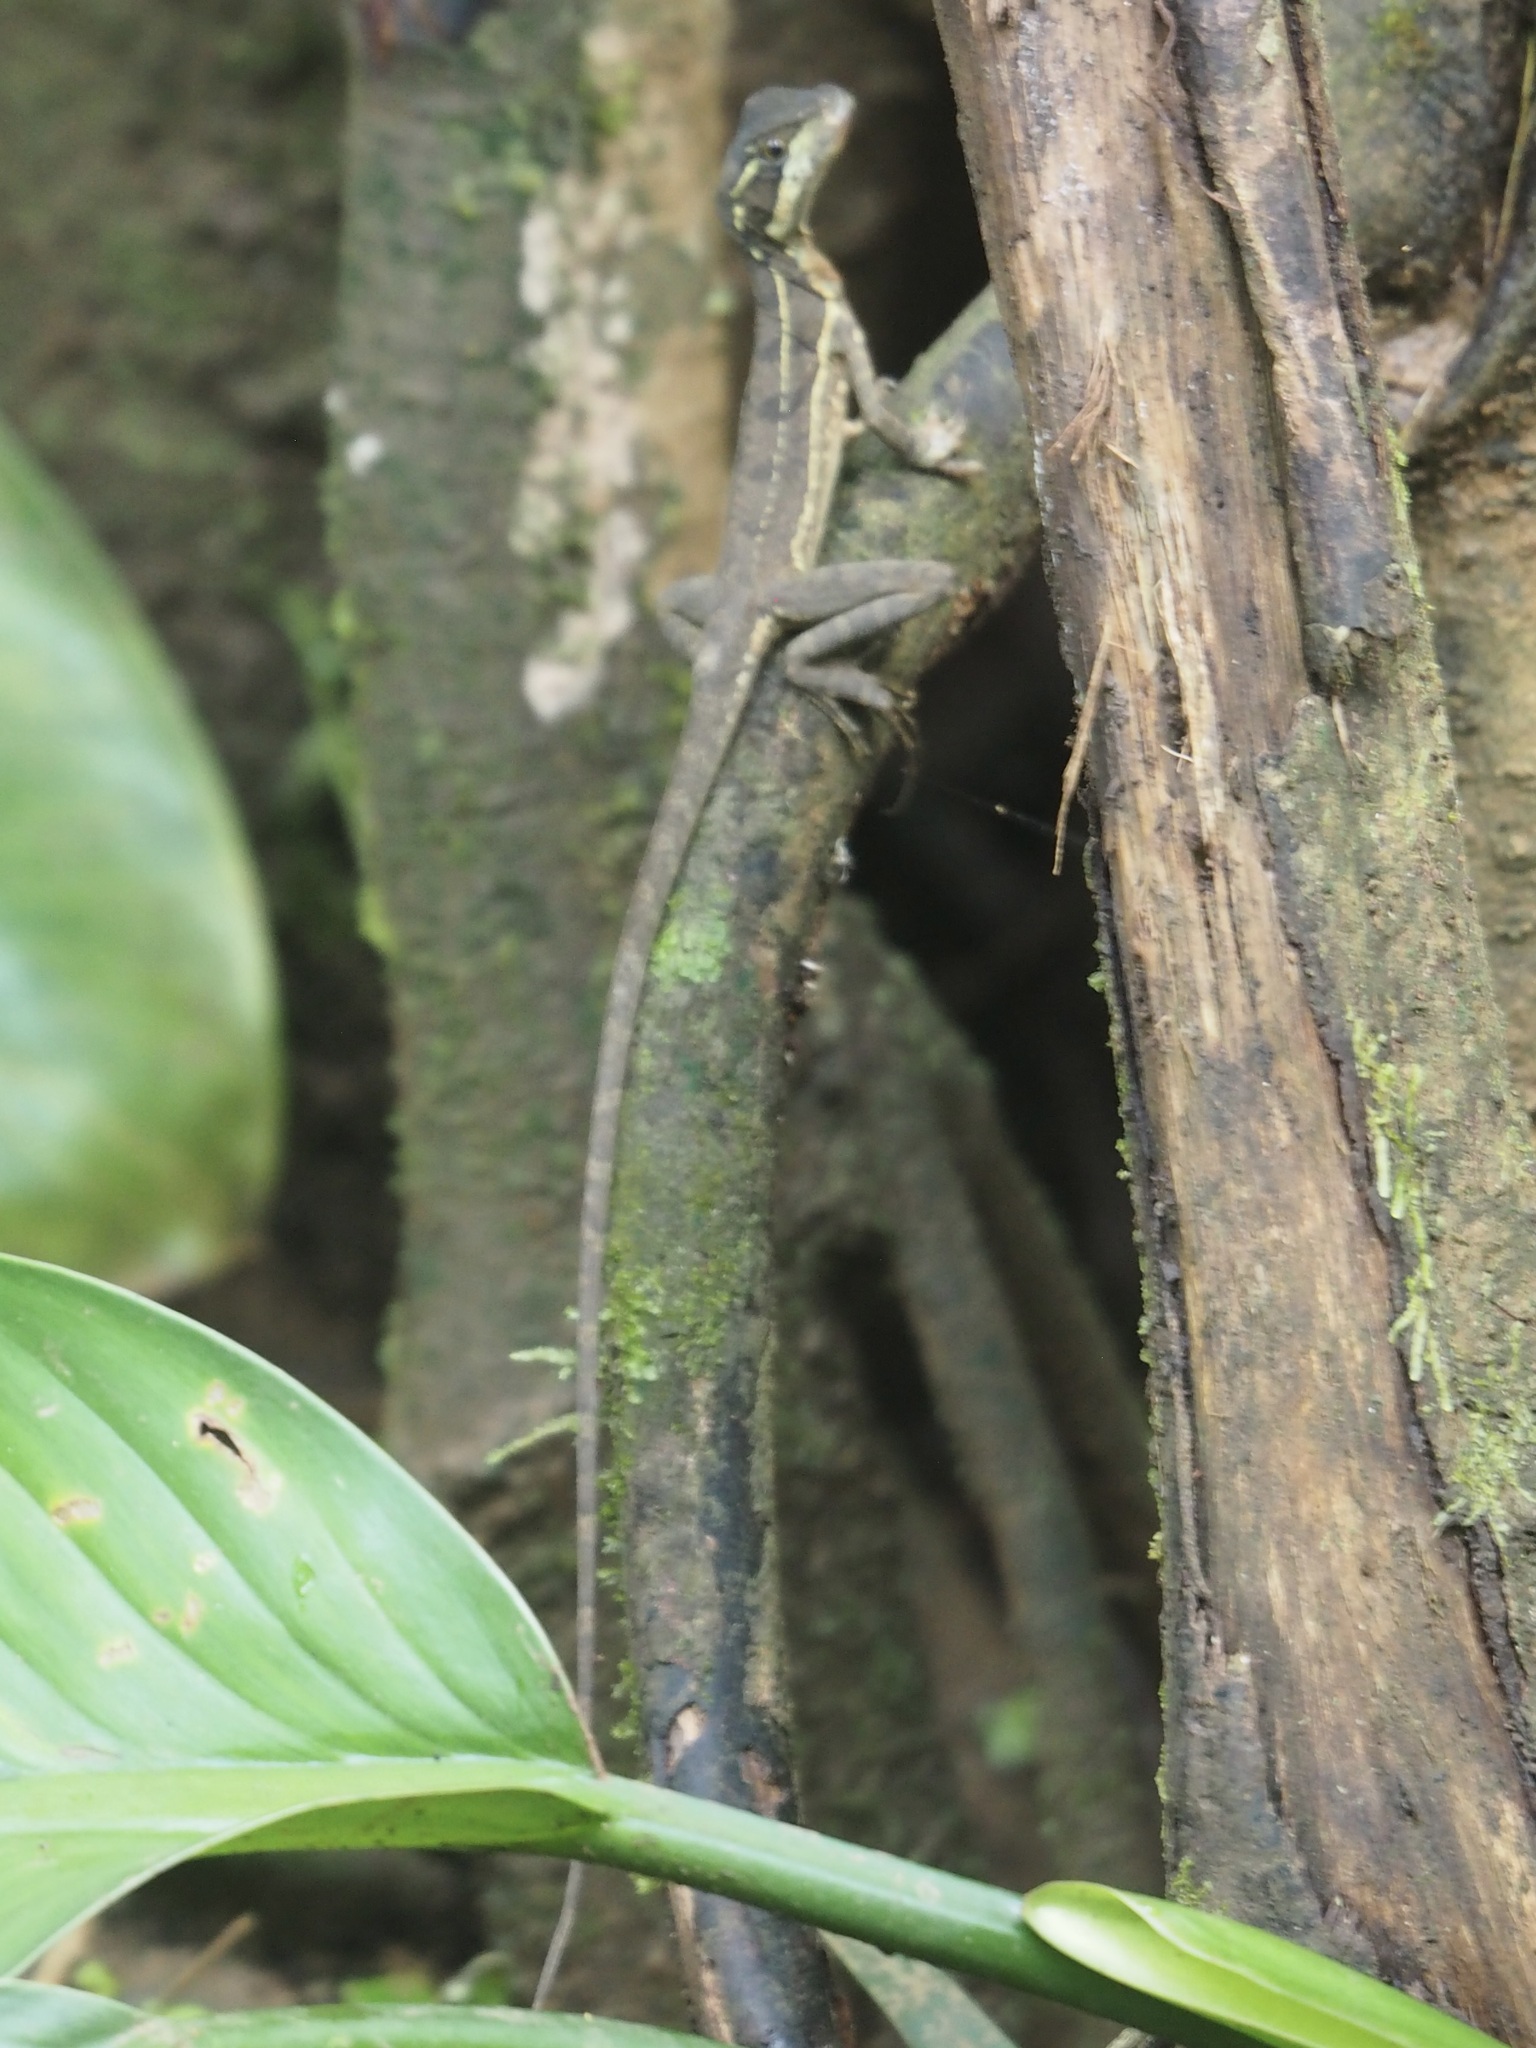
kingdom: Animalia
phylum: Chordata
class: Squamata
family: Corytophanidae
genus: Basiliscus
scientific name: Basiliscus basiliscus
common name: Common basilisk
